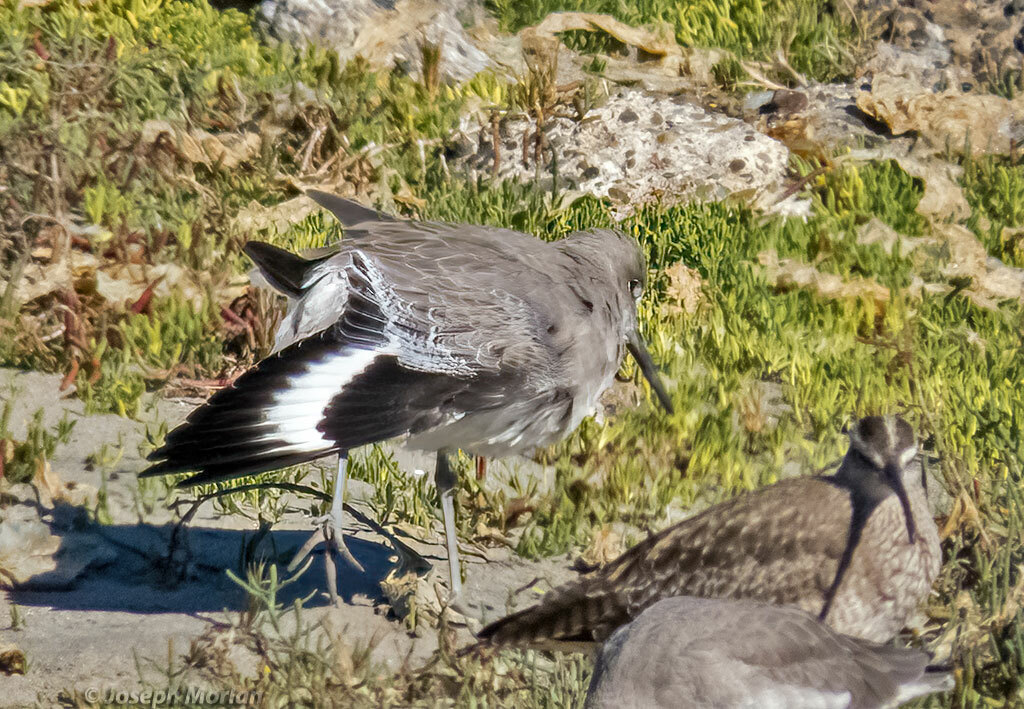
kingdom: Animalia
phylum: Chordata
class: Aves
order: Charadriiformes
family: Scolopacidae
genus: Tringa
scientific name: Tringa semipalmata
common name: Willet
